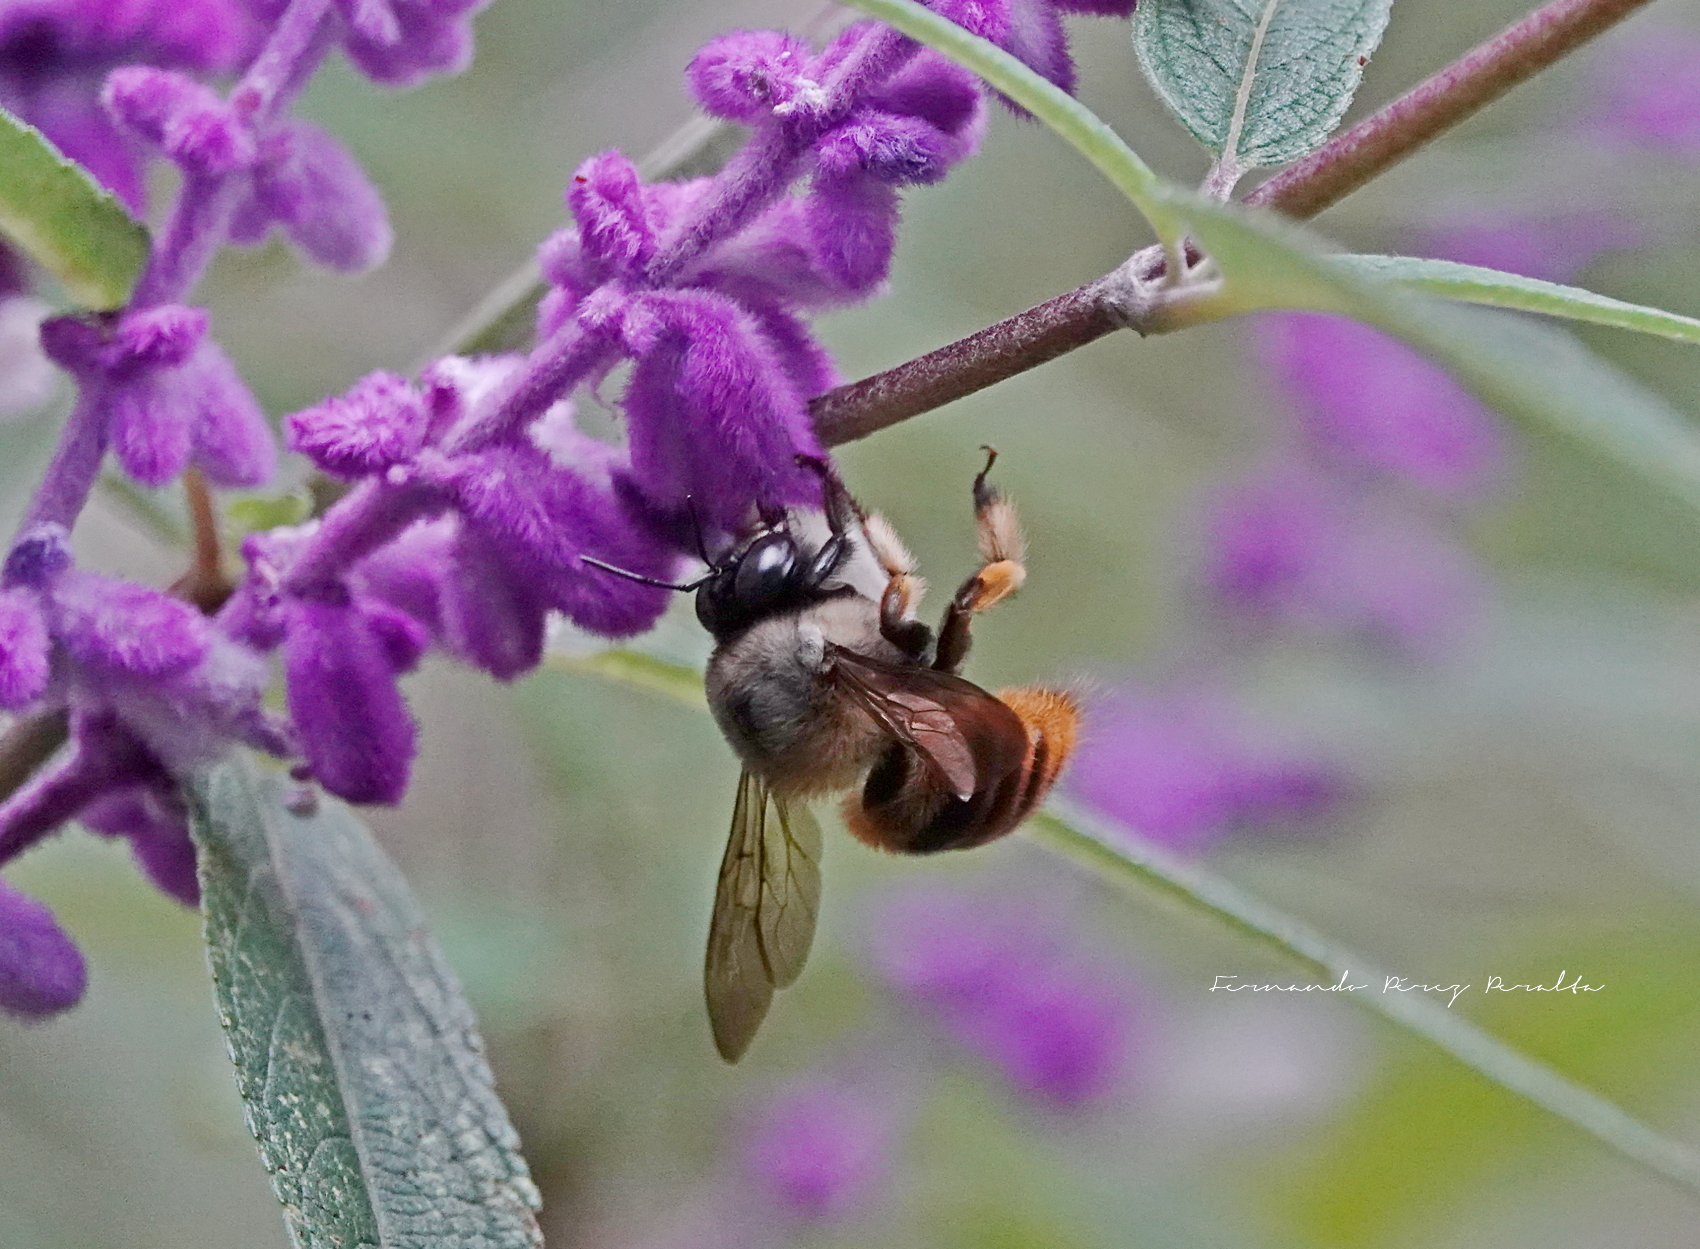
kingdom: Animalia
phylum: Arthropoda
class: Insecta
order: Hymenoptera
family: Apidae
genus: Xylocopa
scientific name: Xylocopa tabaniformis
